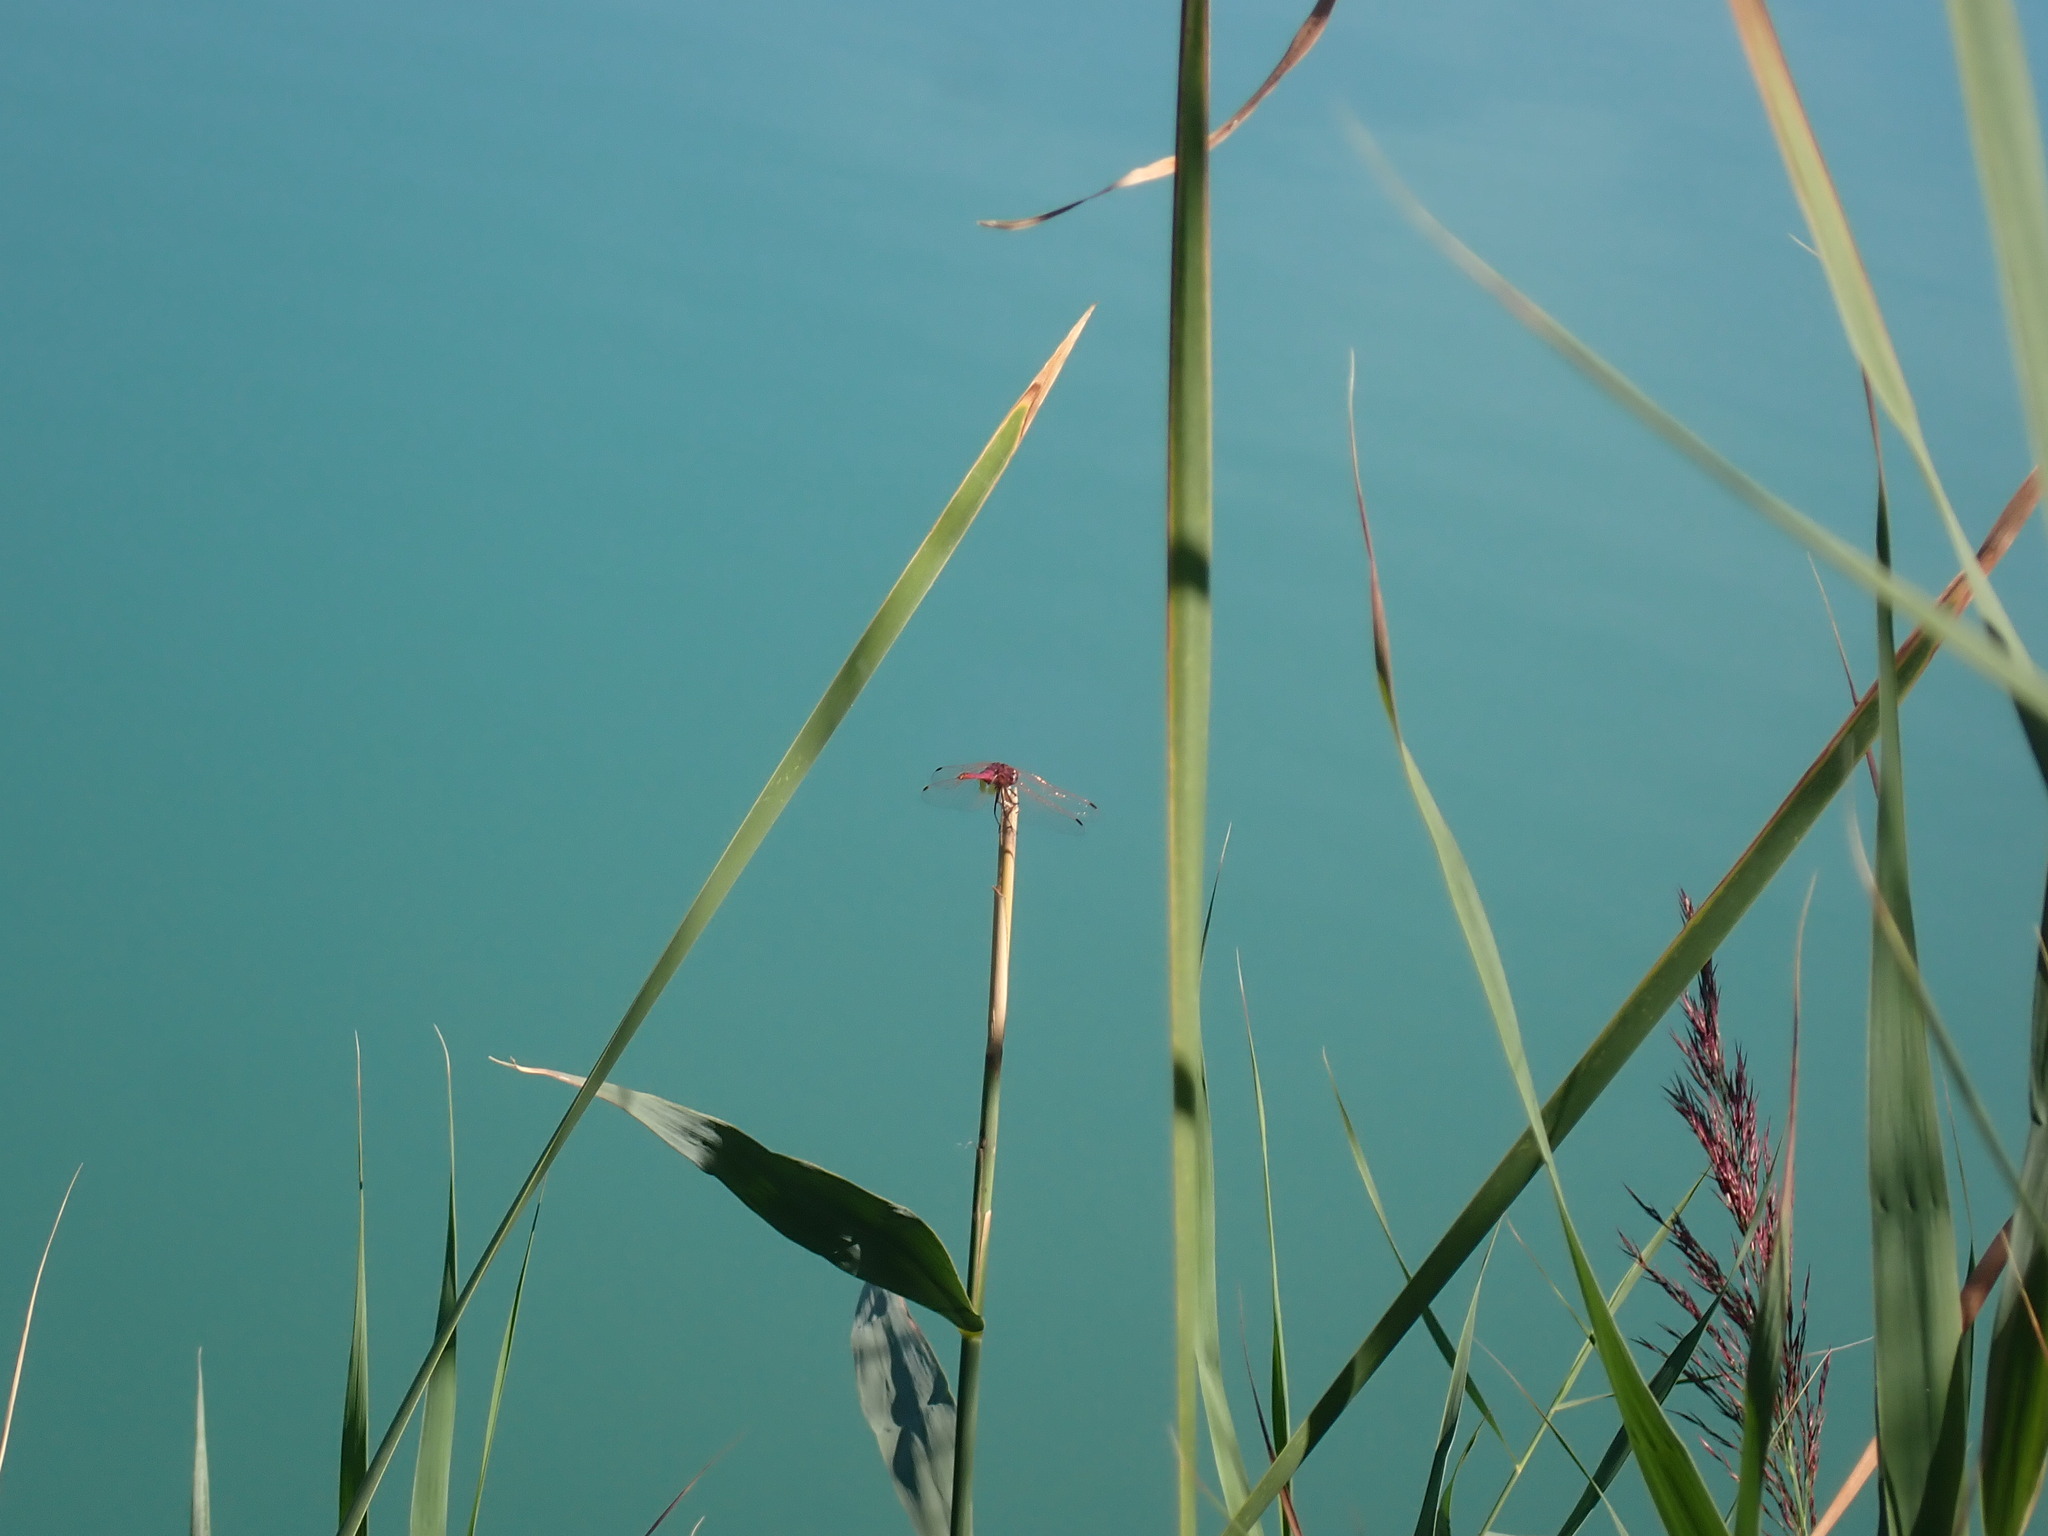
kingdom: Animalia
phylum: Arthropoda
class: Insecta
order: Odonata
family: Libellulidae
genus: Trithemis
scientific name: Trithemis annulata
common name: Violet dropwing
